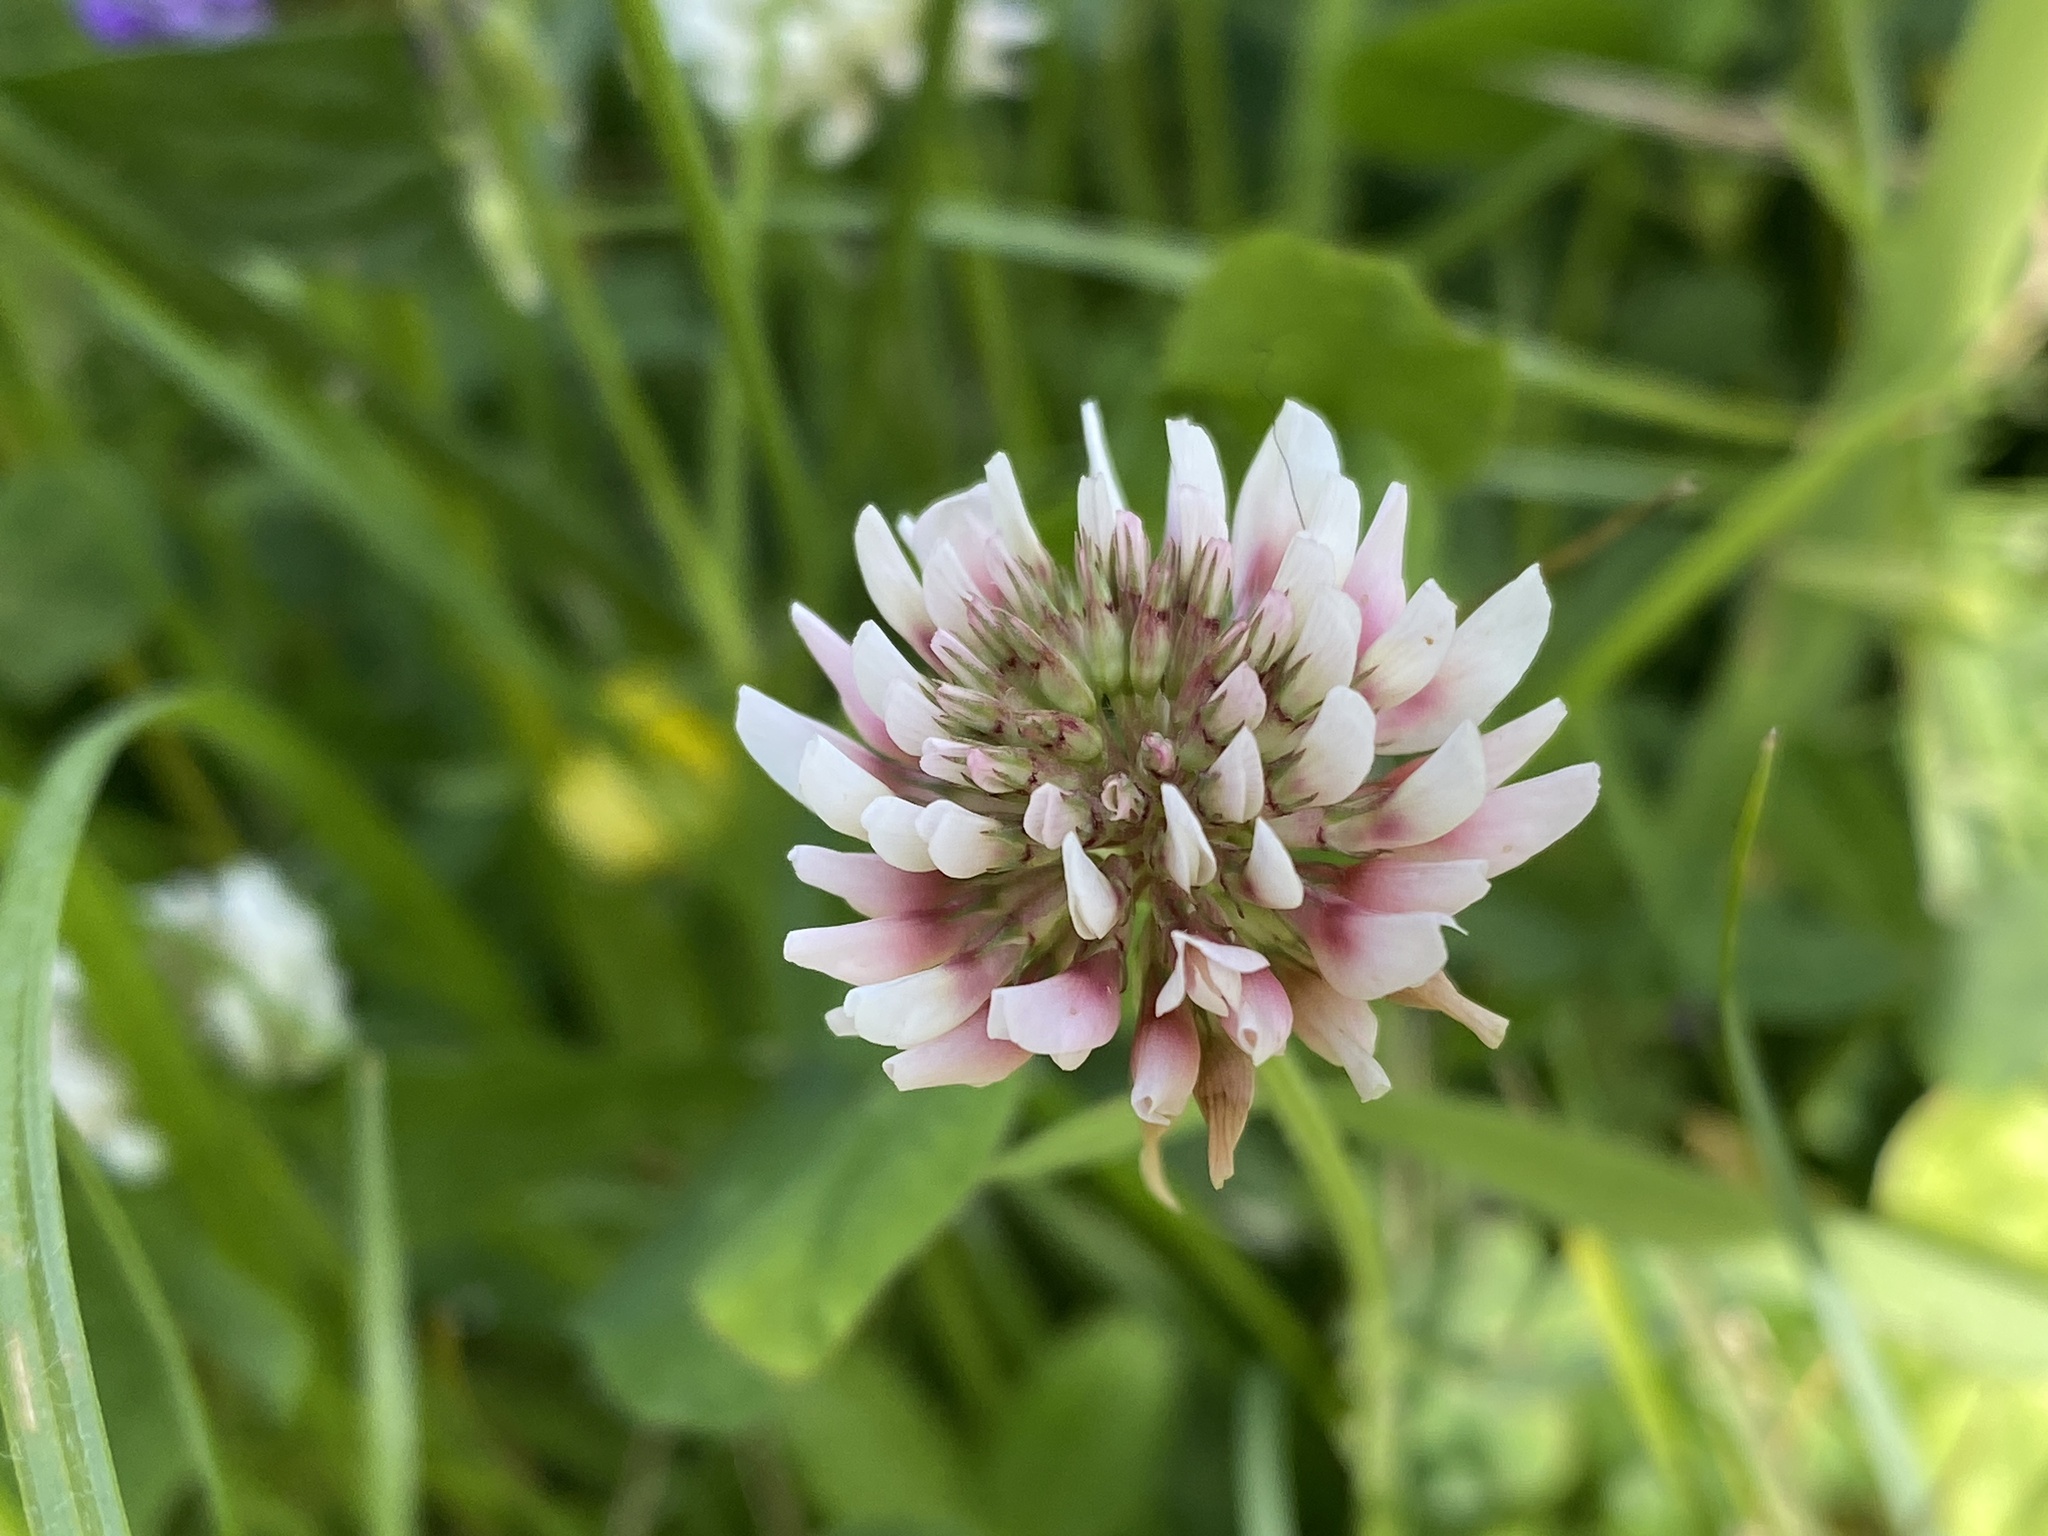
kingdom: Plantae
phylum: Tracheophyta
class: Magnoliopsida
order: Fabales
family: Fabaceae
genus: Trifolium
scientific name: Trifolium repens
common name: White clover
